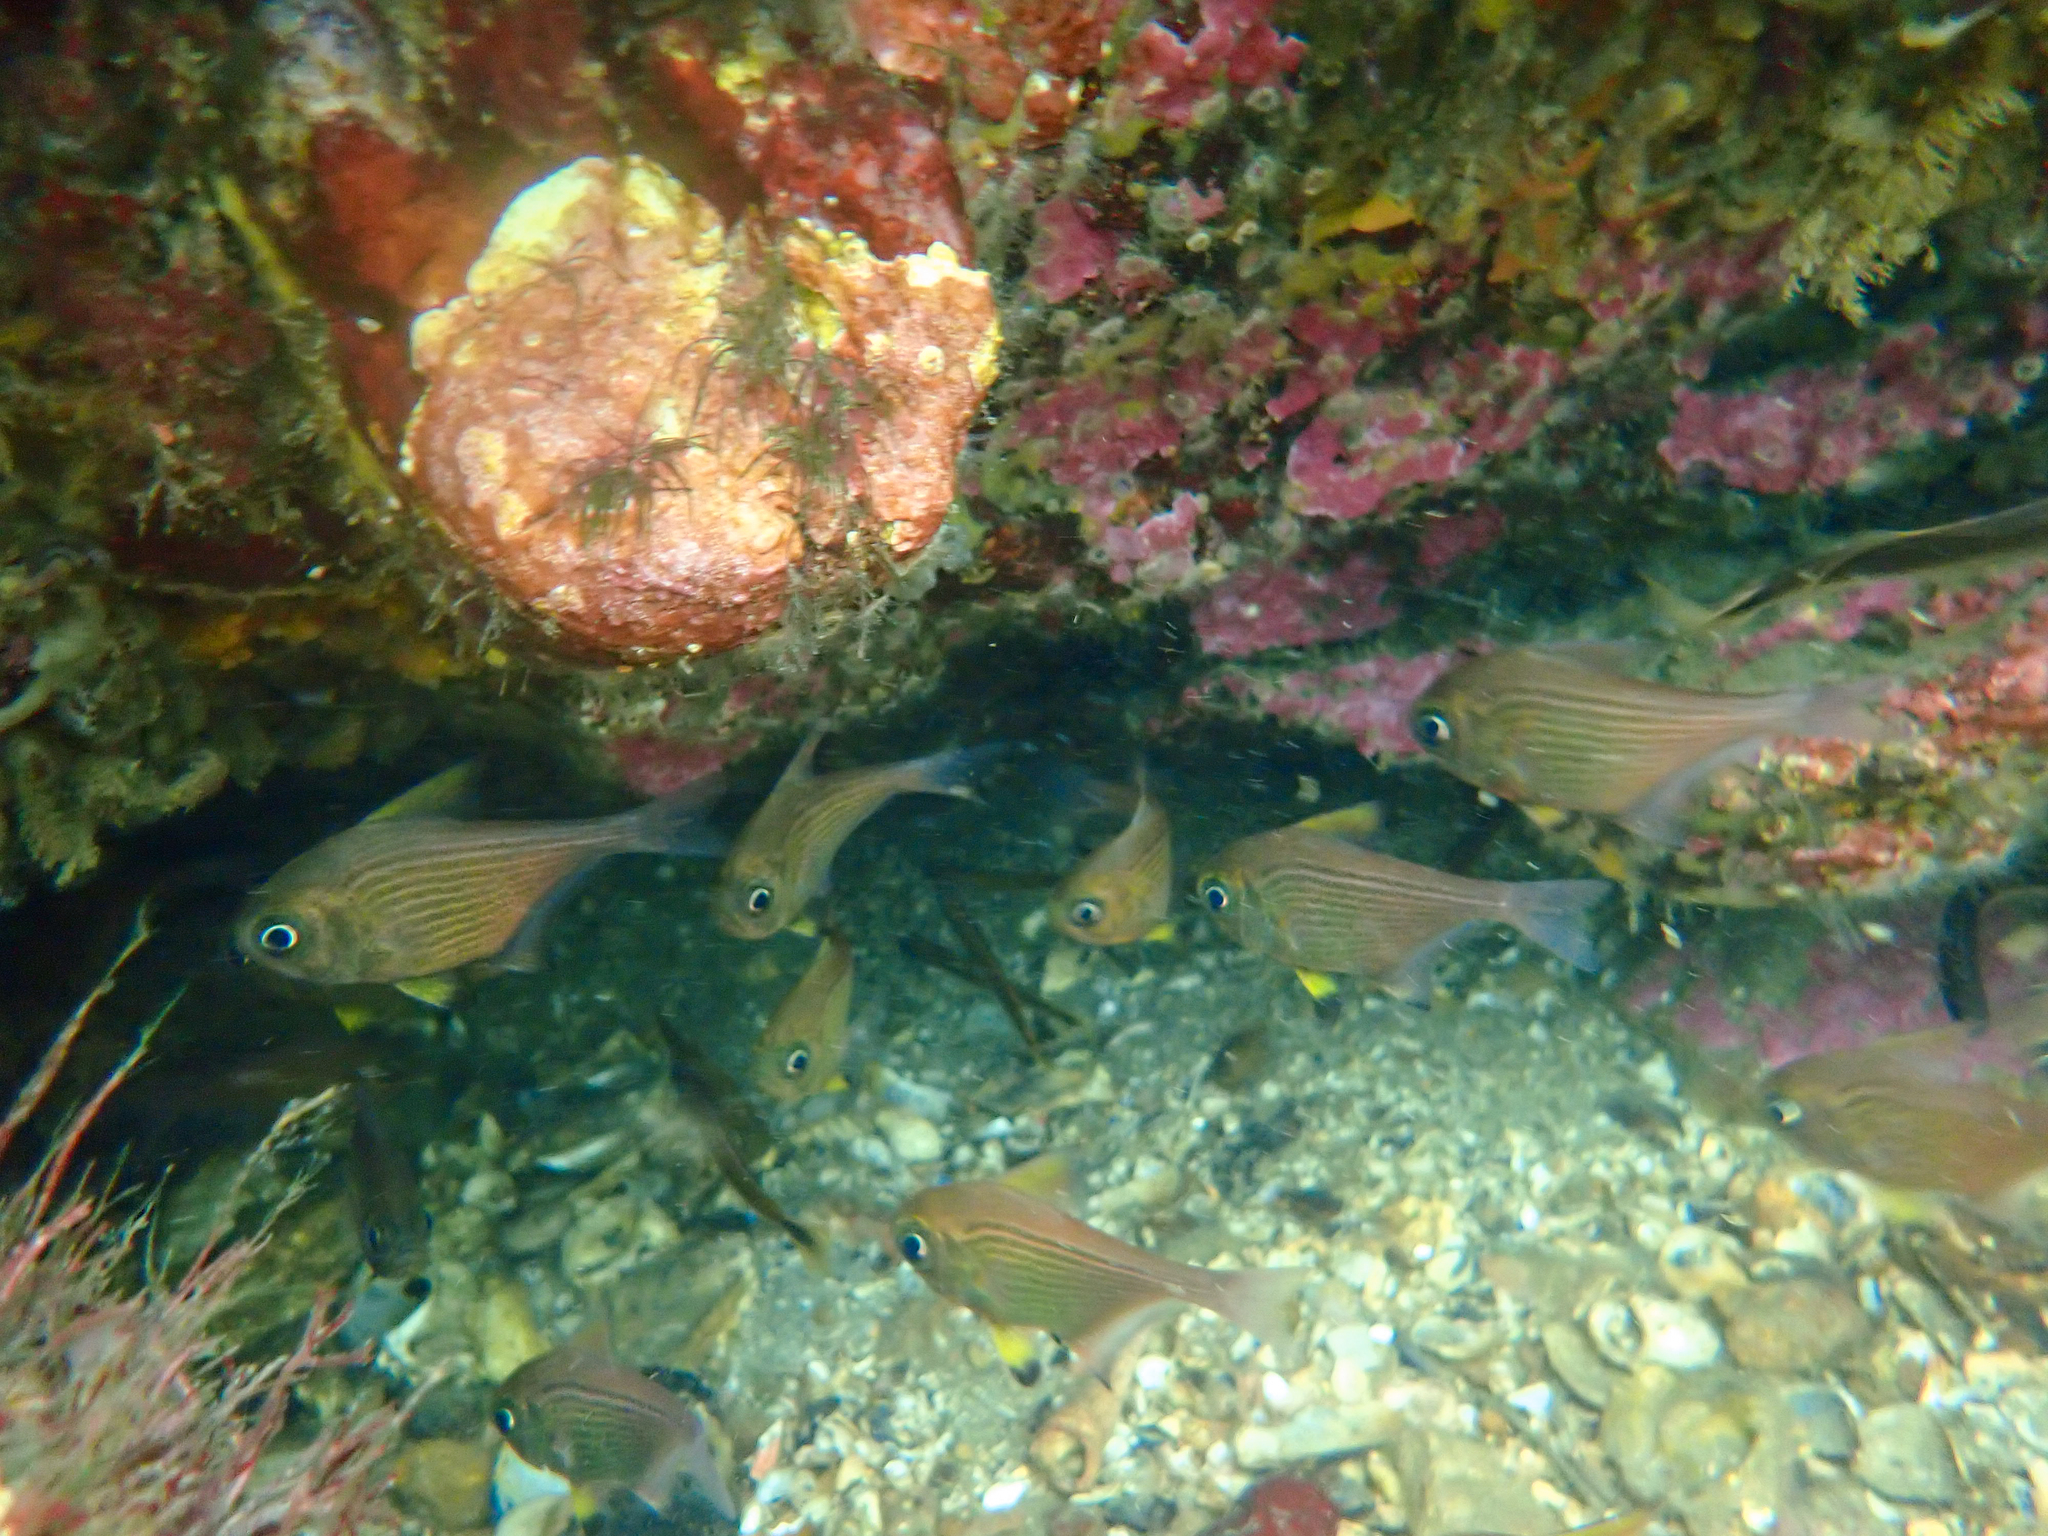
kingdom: Animalia
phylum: Chordata
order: Perciformes
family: Pempheridae
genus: Pempheris
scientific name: Pempheris multiradiata
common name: Big-scaled bullseye
